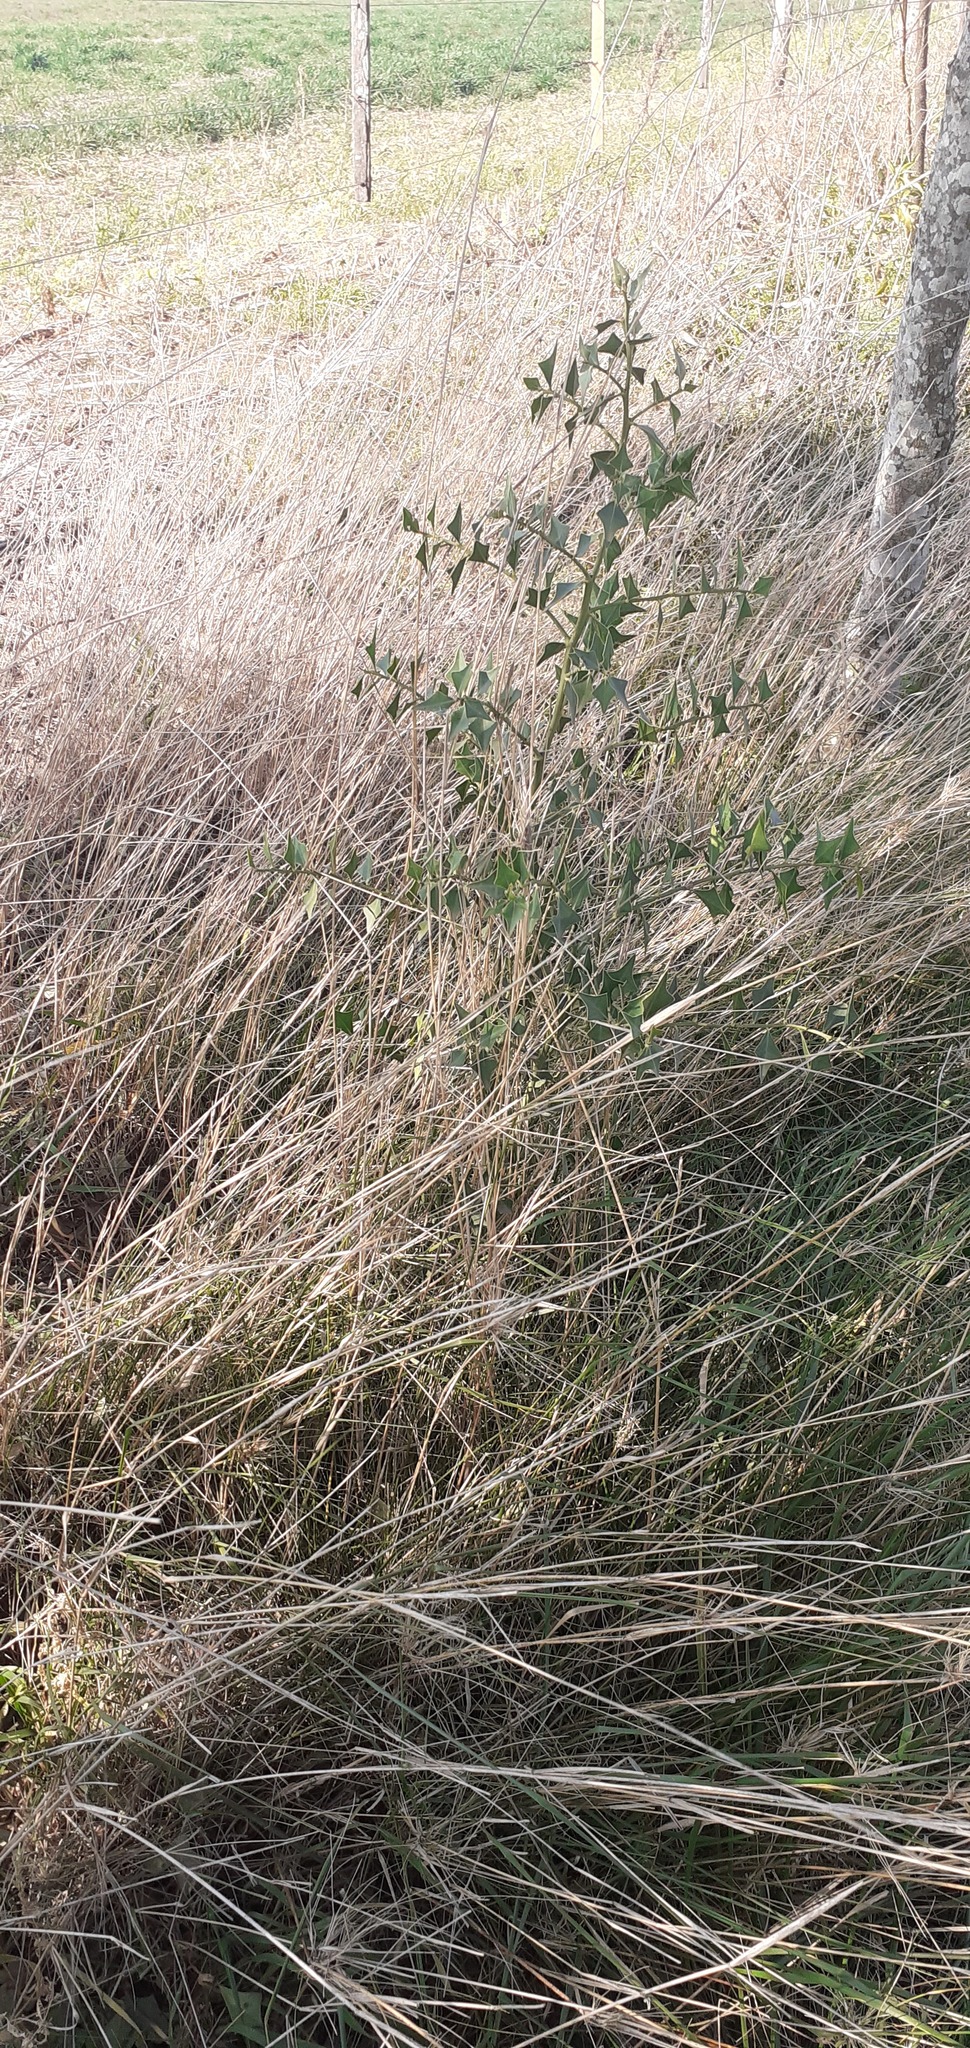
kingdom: Plantae
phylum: Tracheophyta
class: Magnoliopsida
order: Santalales
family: Cervantesiaceae
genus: Jodina
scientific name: Jodina rhombifolia
